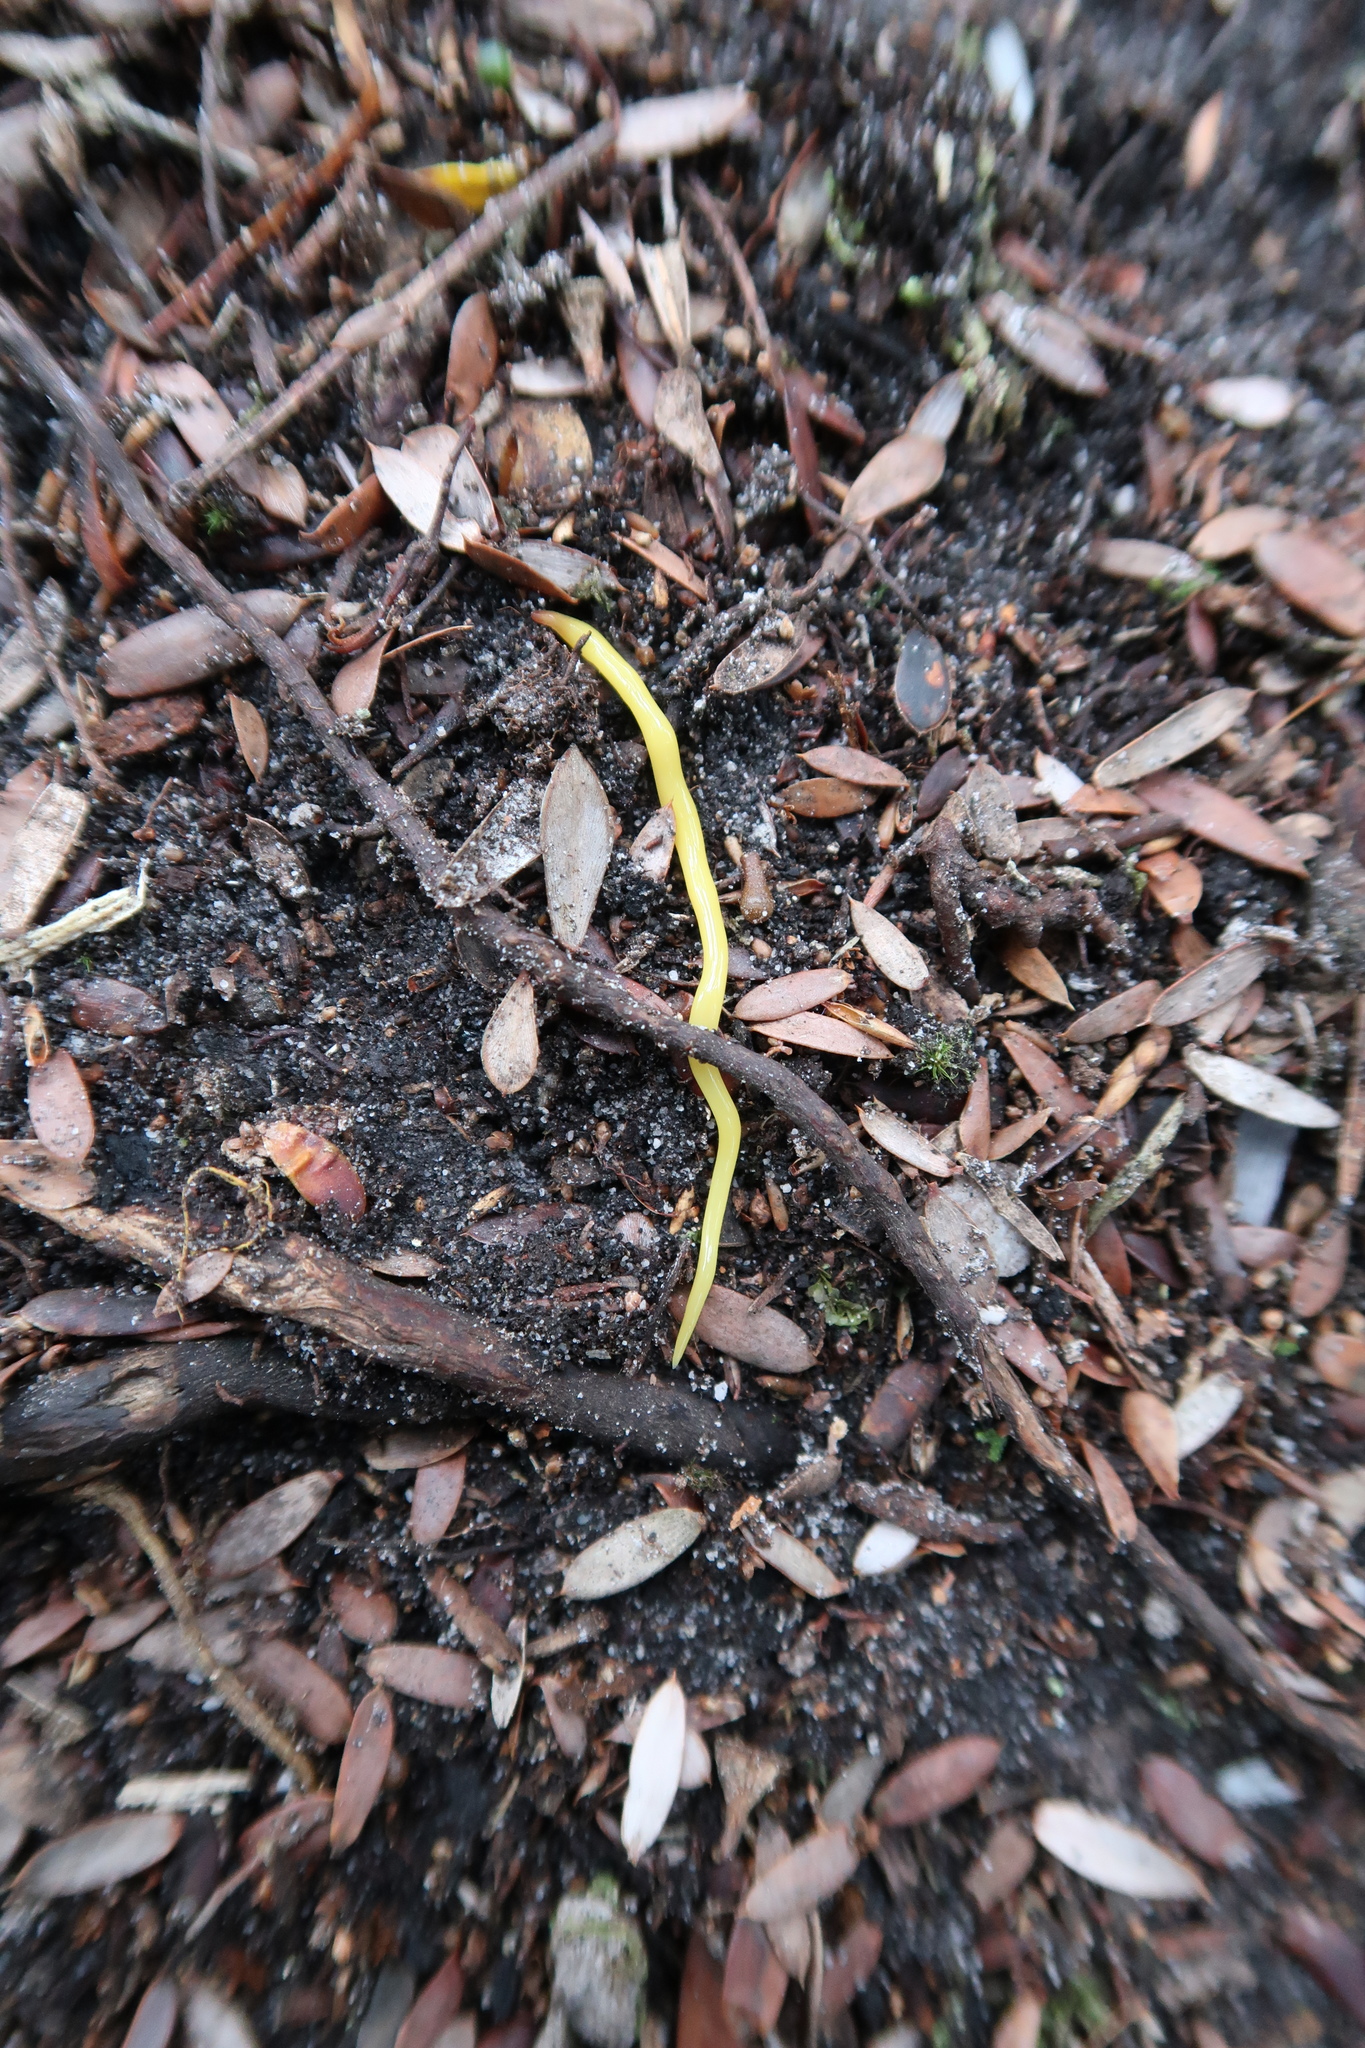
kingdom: Animalia
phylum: Platyhelminthes
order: Tricladida
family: Geoplanidae
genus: Fletchamia
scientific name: Fletchamia sugdeni
